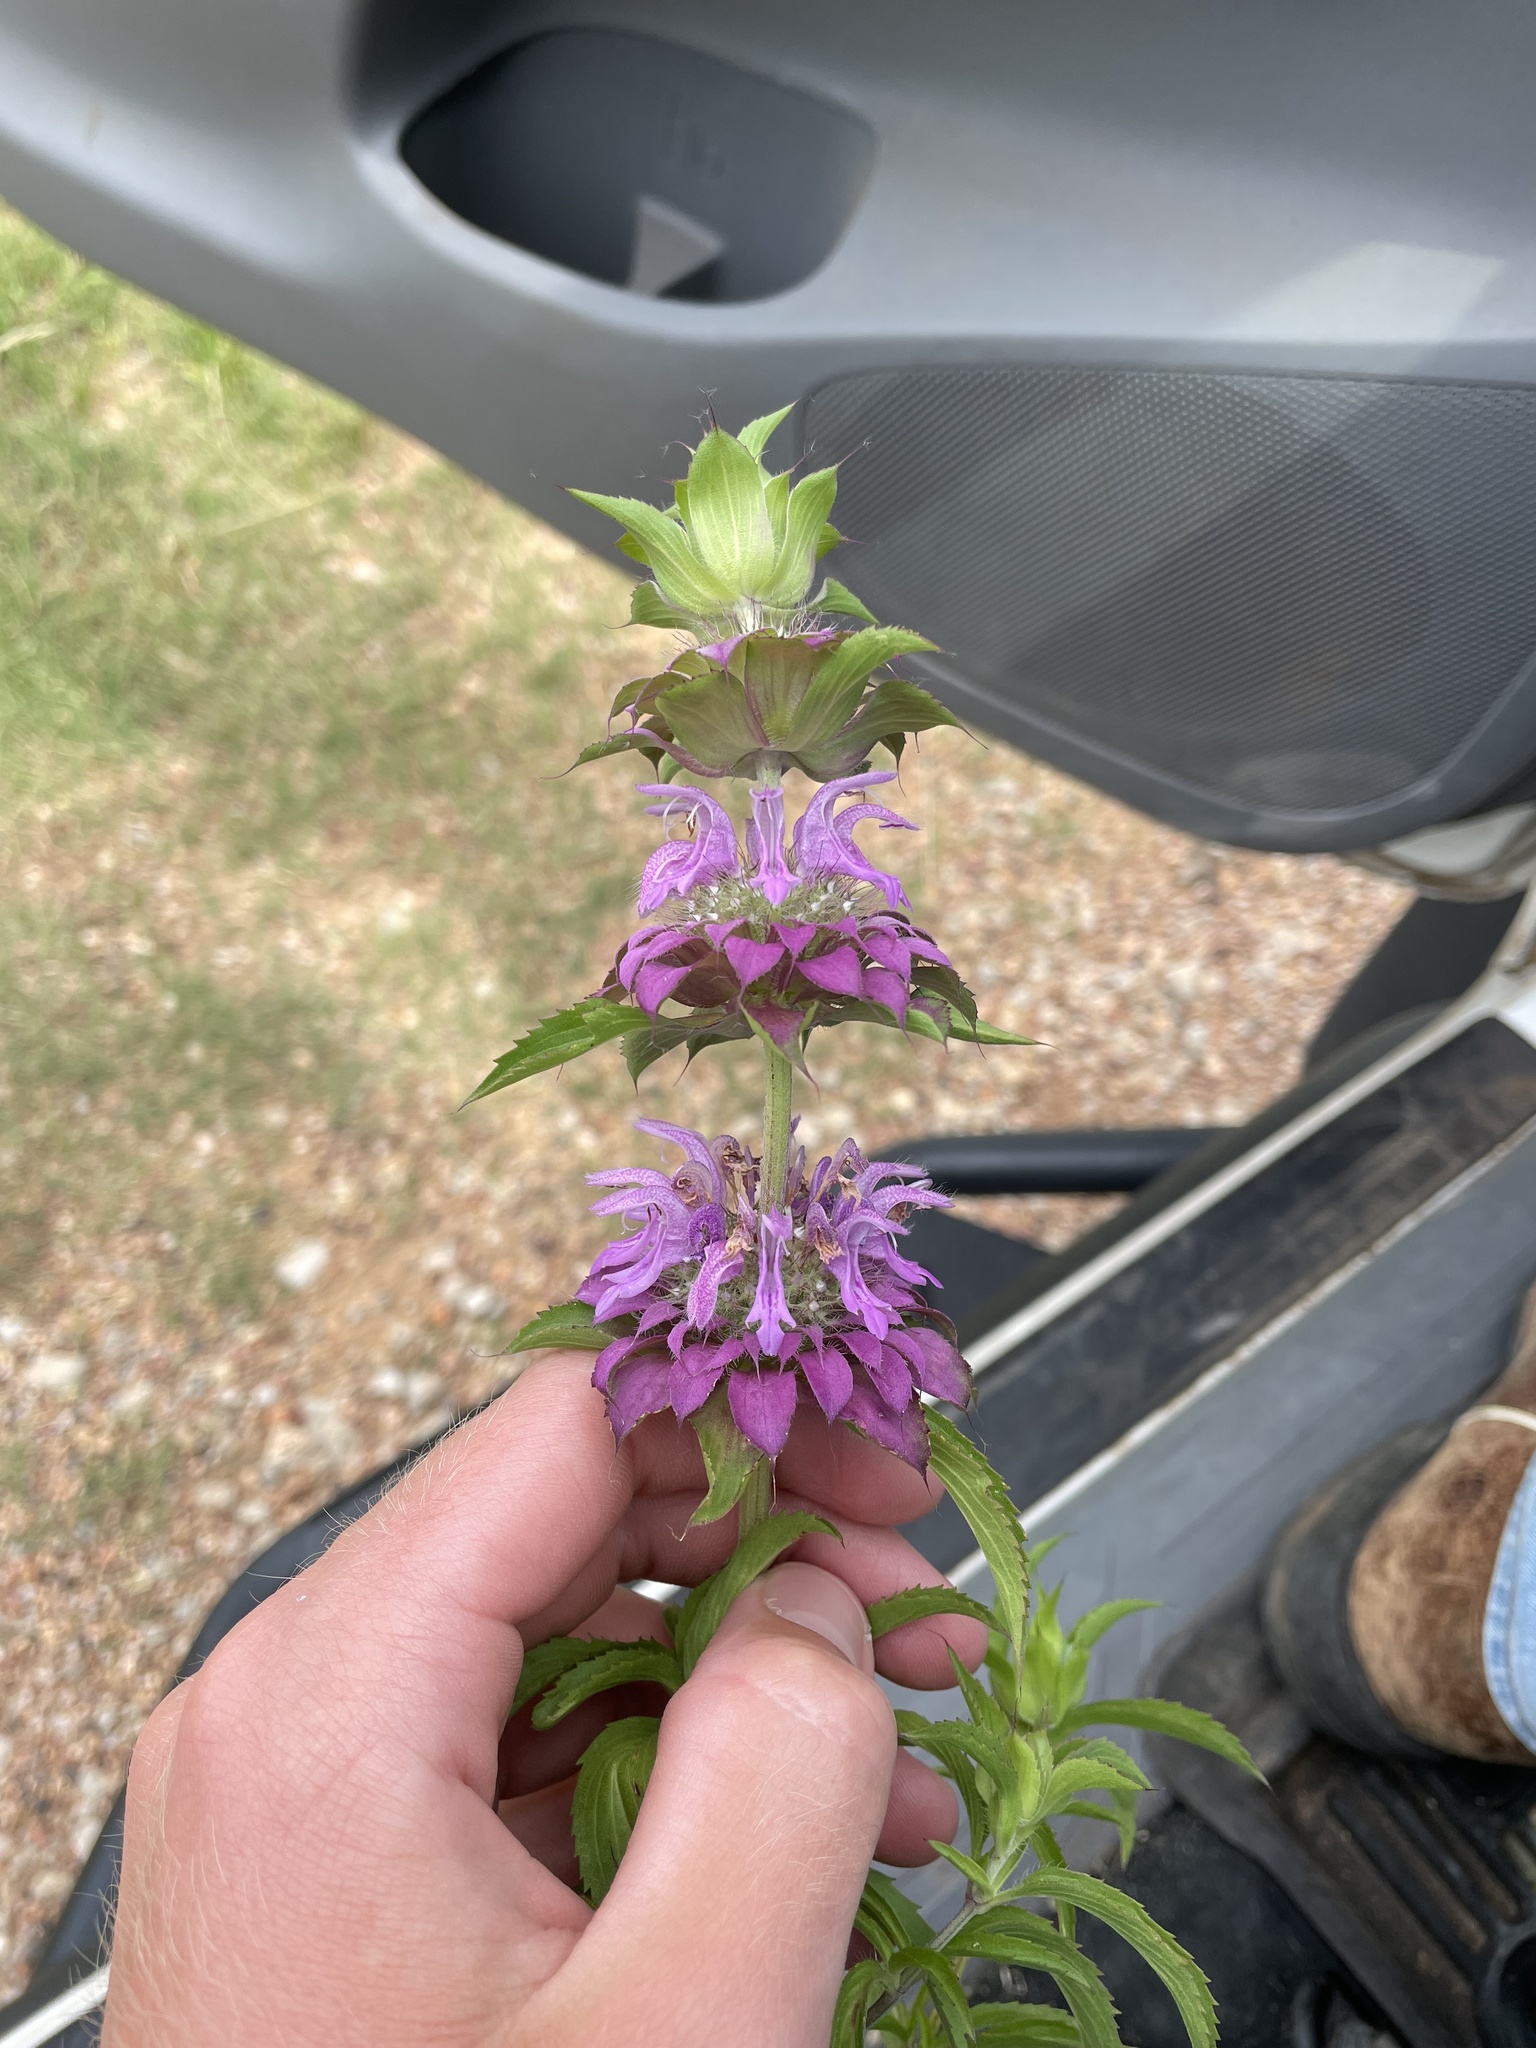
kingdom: Plantae
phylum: Tracheophyta
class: Magnoliopsida
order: Lamiales
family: Lamiaceae
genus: Monarda
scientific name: Monarda citriodora
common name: Lemon beebalm
